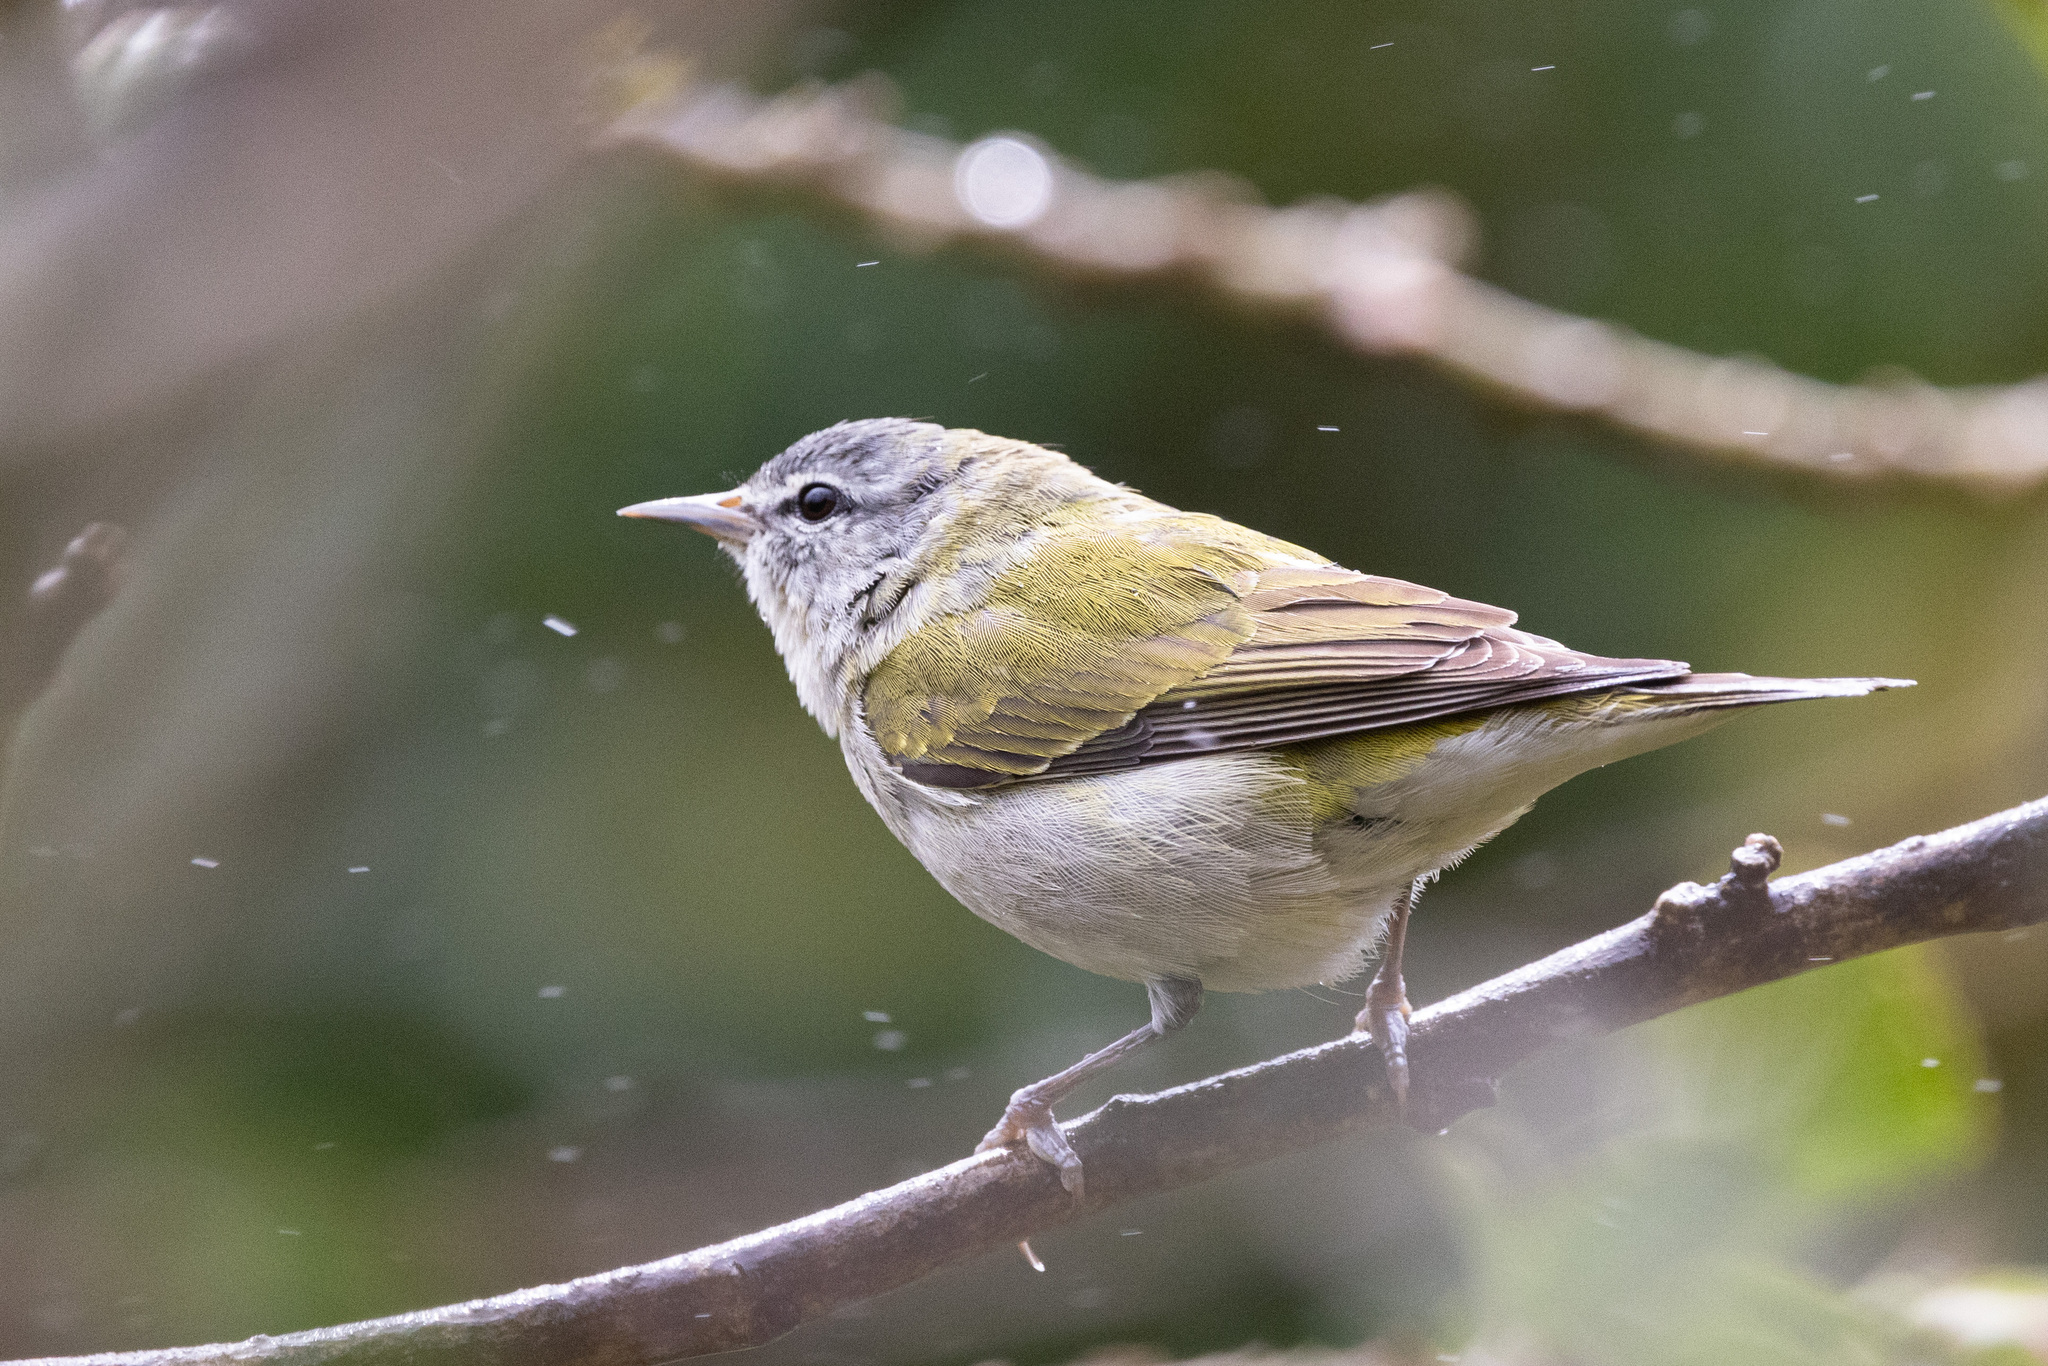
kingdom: Animalia
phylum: Chordata
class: Aves
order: Passeriformes
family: Parulidae
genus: Leiothlypis
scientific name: Leiothlypis peregrina
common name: Tennessee warbler
